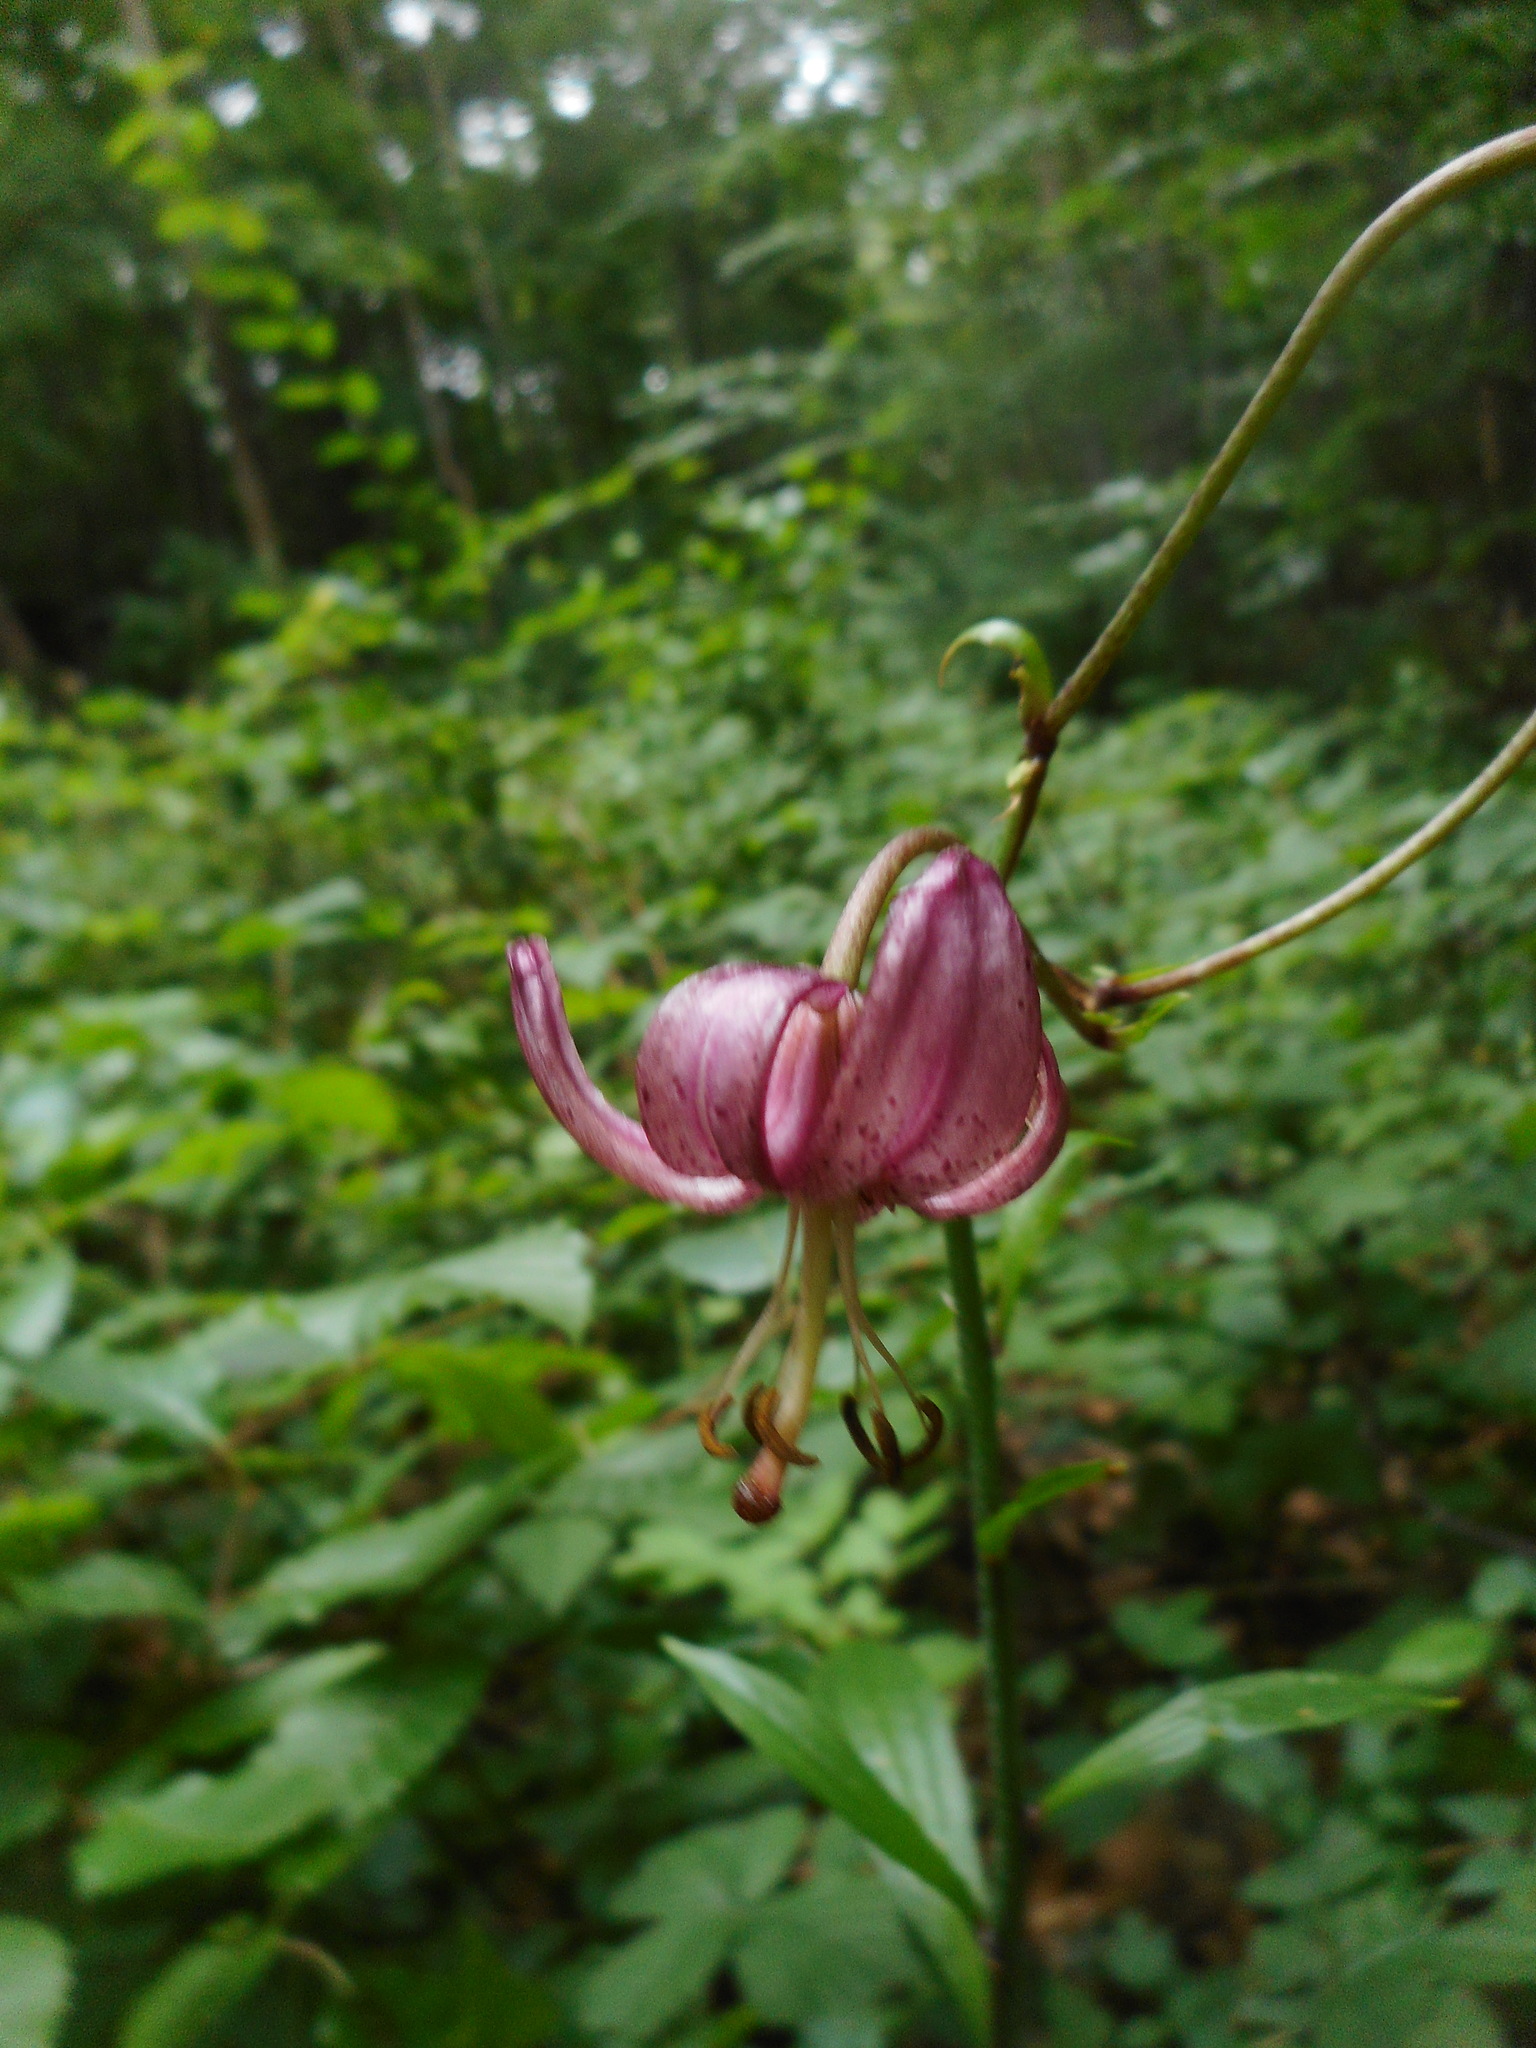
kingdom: Plantae
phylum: Tracheophyta
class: Liliopsida
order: Liliales
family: Liliaceae
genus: Lilium
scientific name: Lilium martagon
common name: Martagon lily
